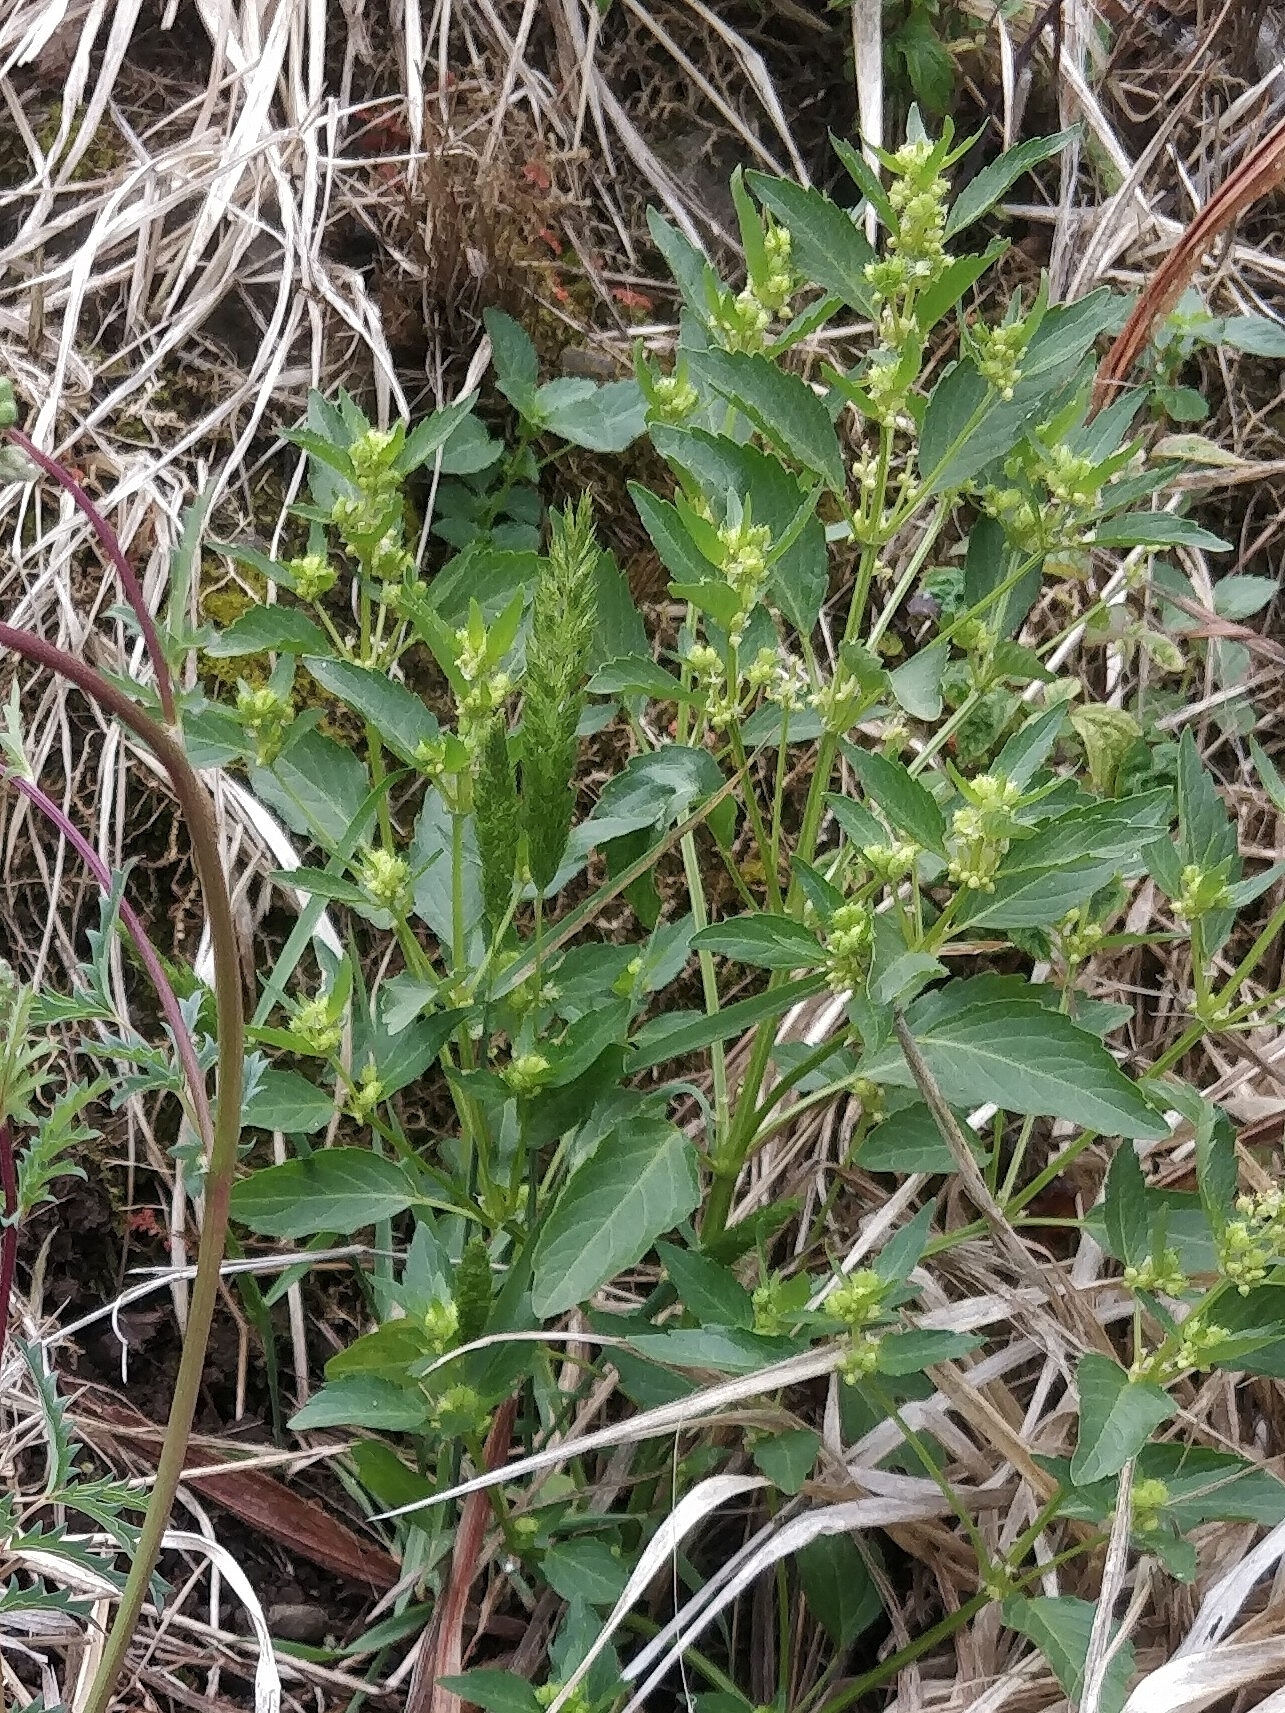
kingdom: Plantae
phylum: Tracheophyta
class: Magnoliopsida
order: Malpighiales
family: Euphorbiaceae
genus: Mercurialis
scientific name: Mercurialis annua
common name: Annual mercury
